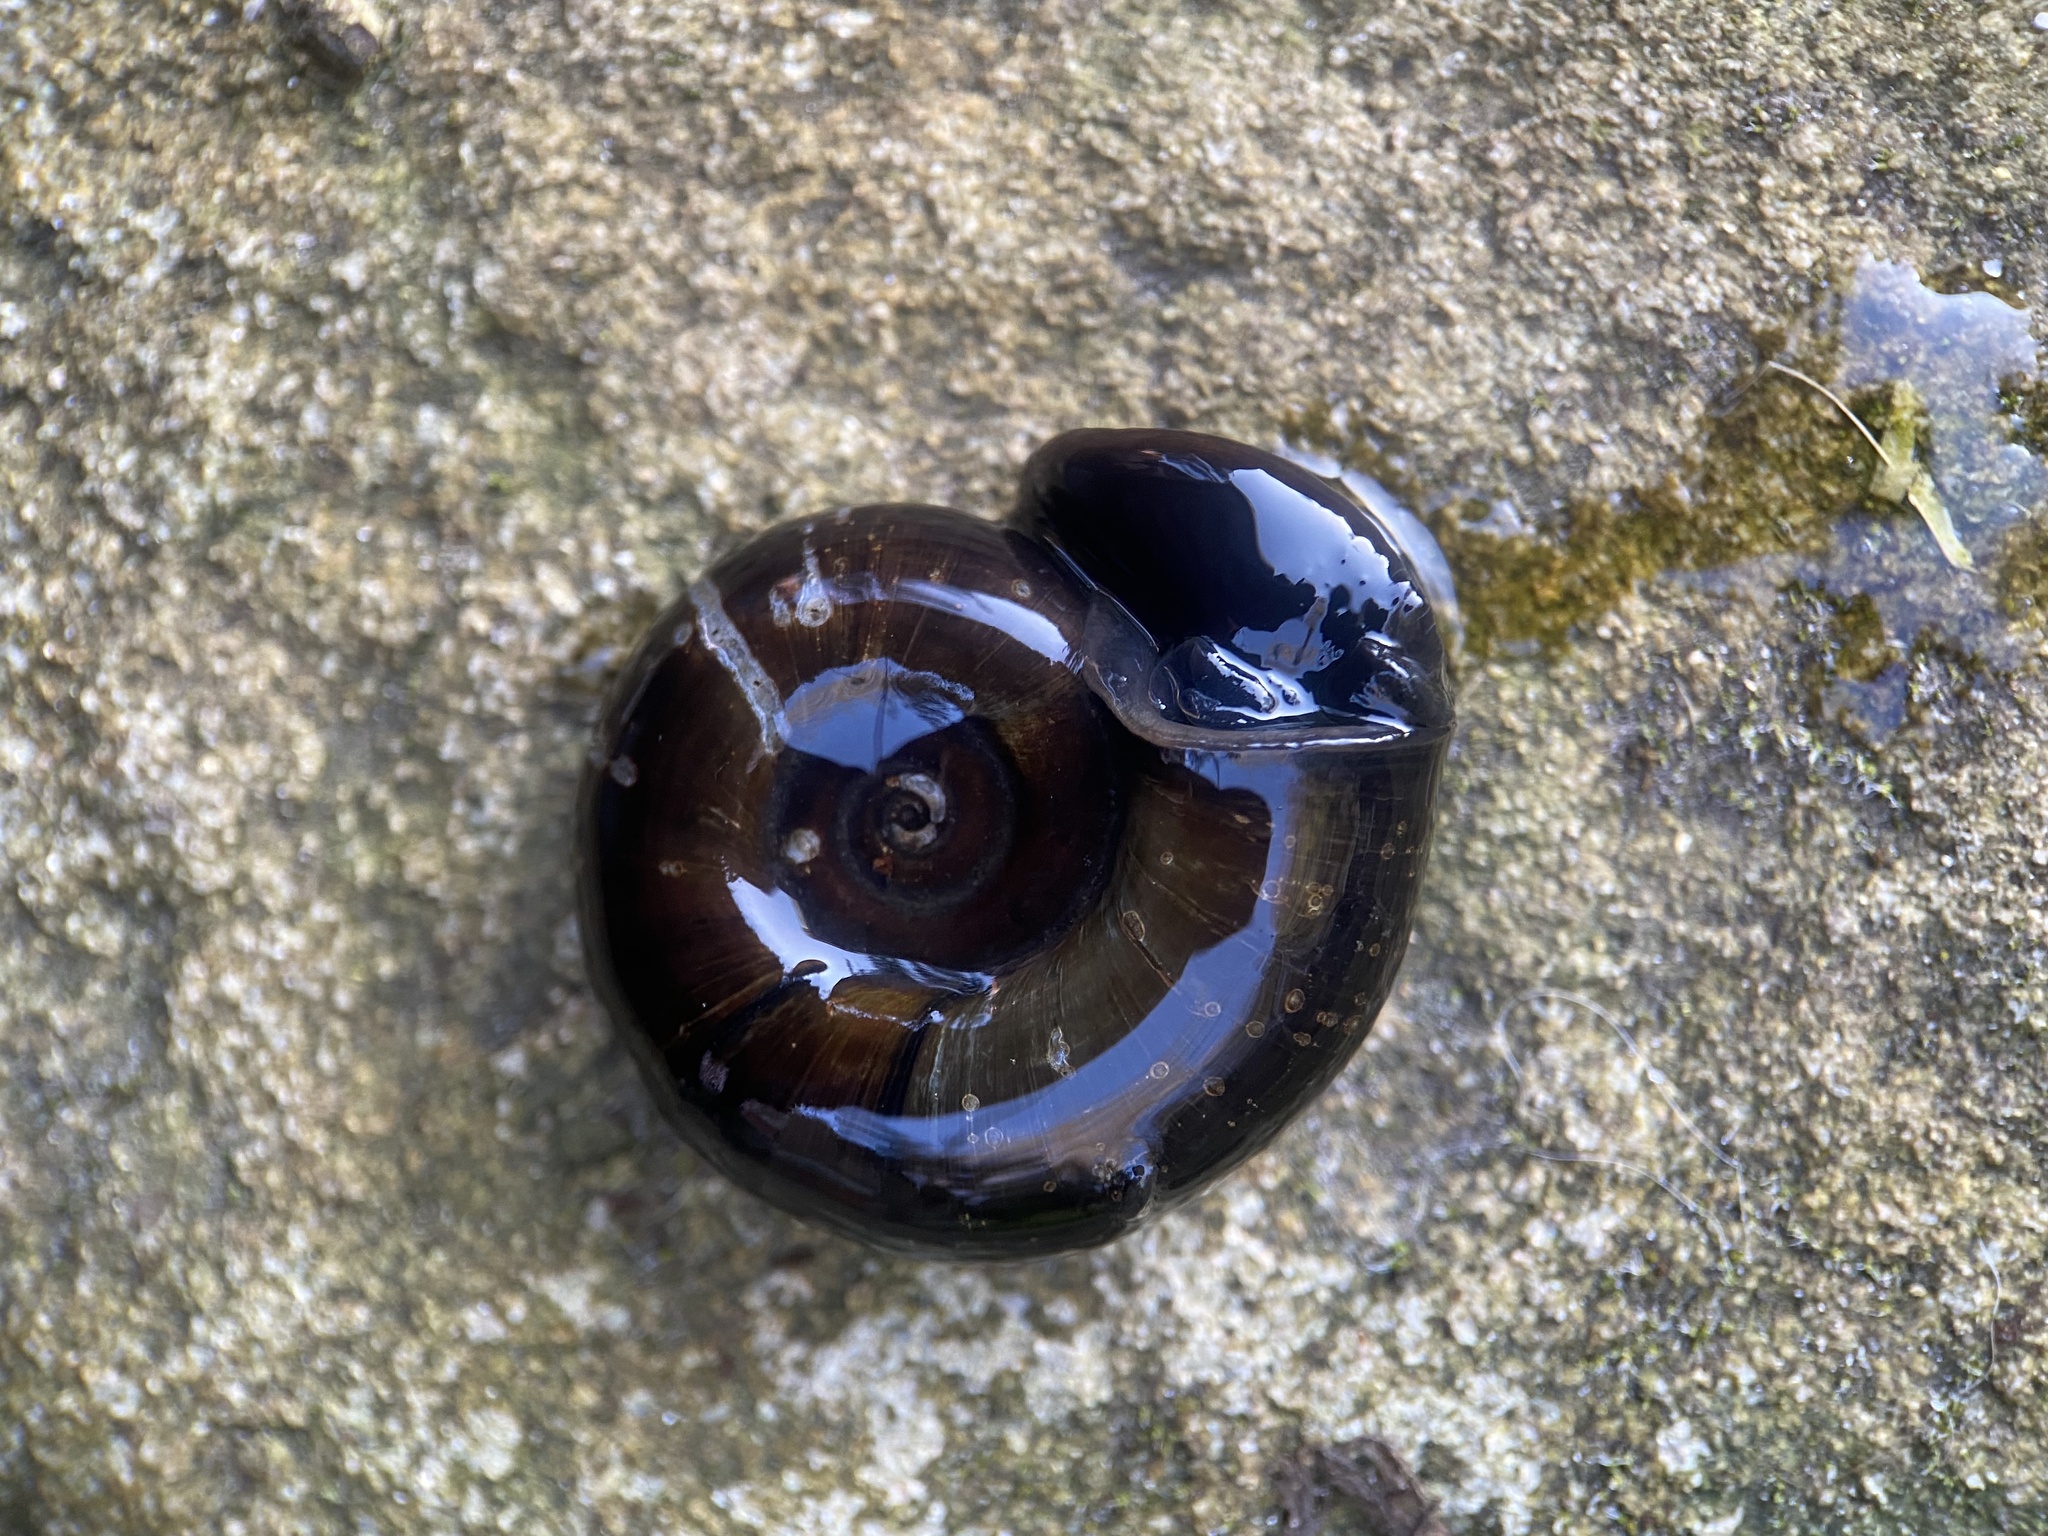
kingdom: Animalia
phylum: Mollusca
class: Gastropoda
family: Planorbidae
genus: Planorbarius
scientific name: Planorbarius corneus
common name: Great ramshorn
